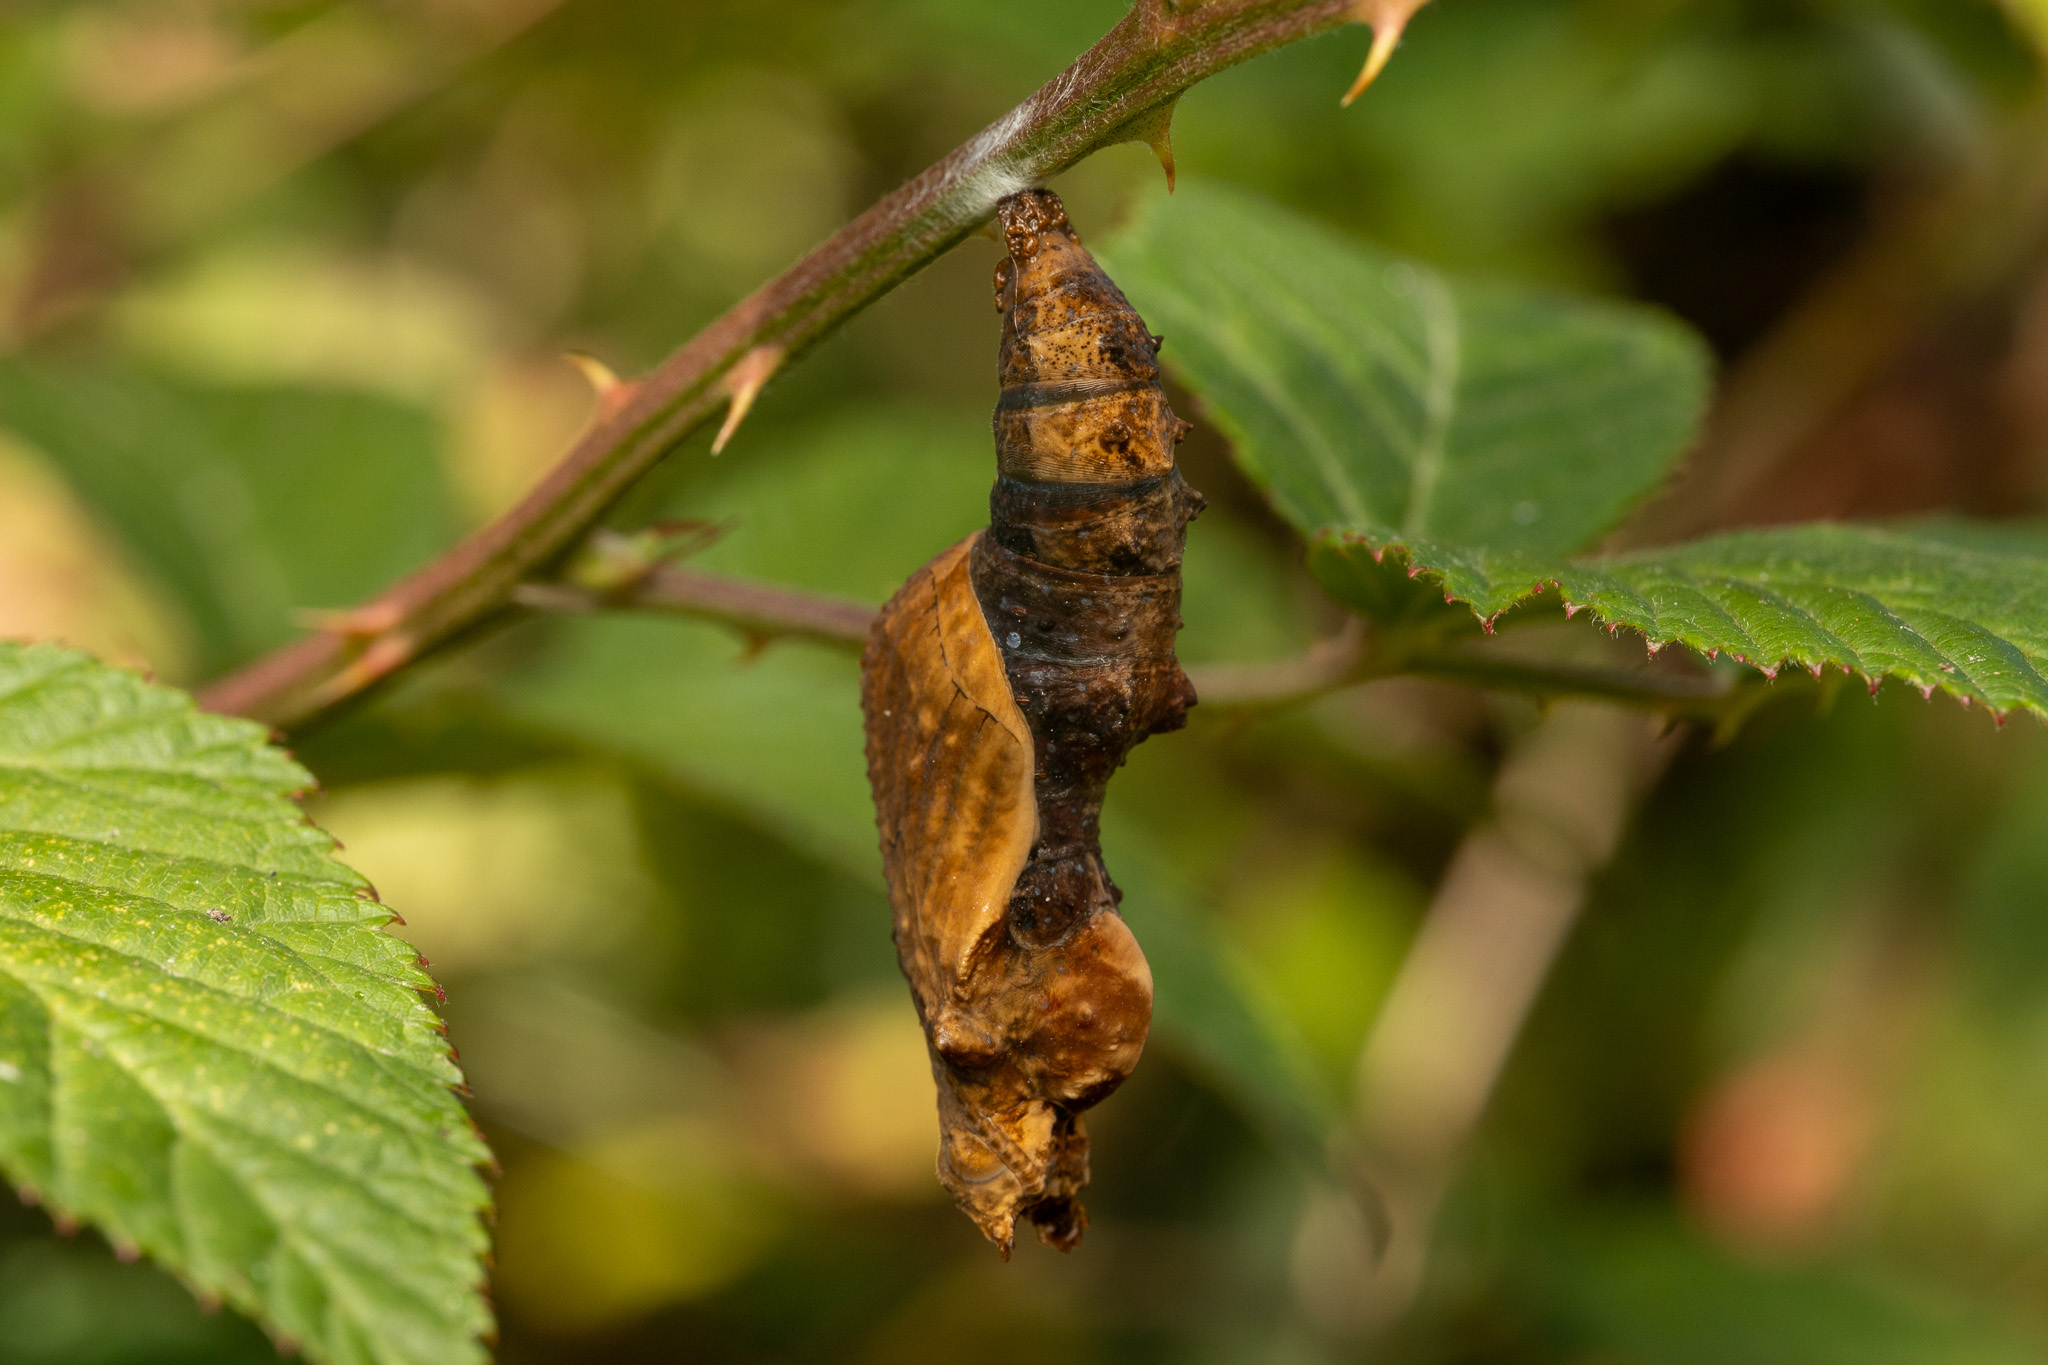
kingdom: Animalia
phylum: Arthropoda
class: Insecta
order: Lepidoptera
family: Nymphalidae
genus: Dione
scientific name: Dione vanillae
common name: Gulf fritillary
